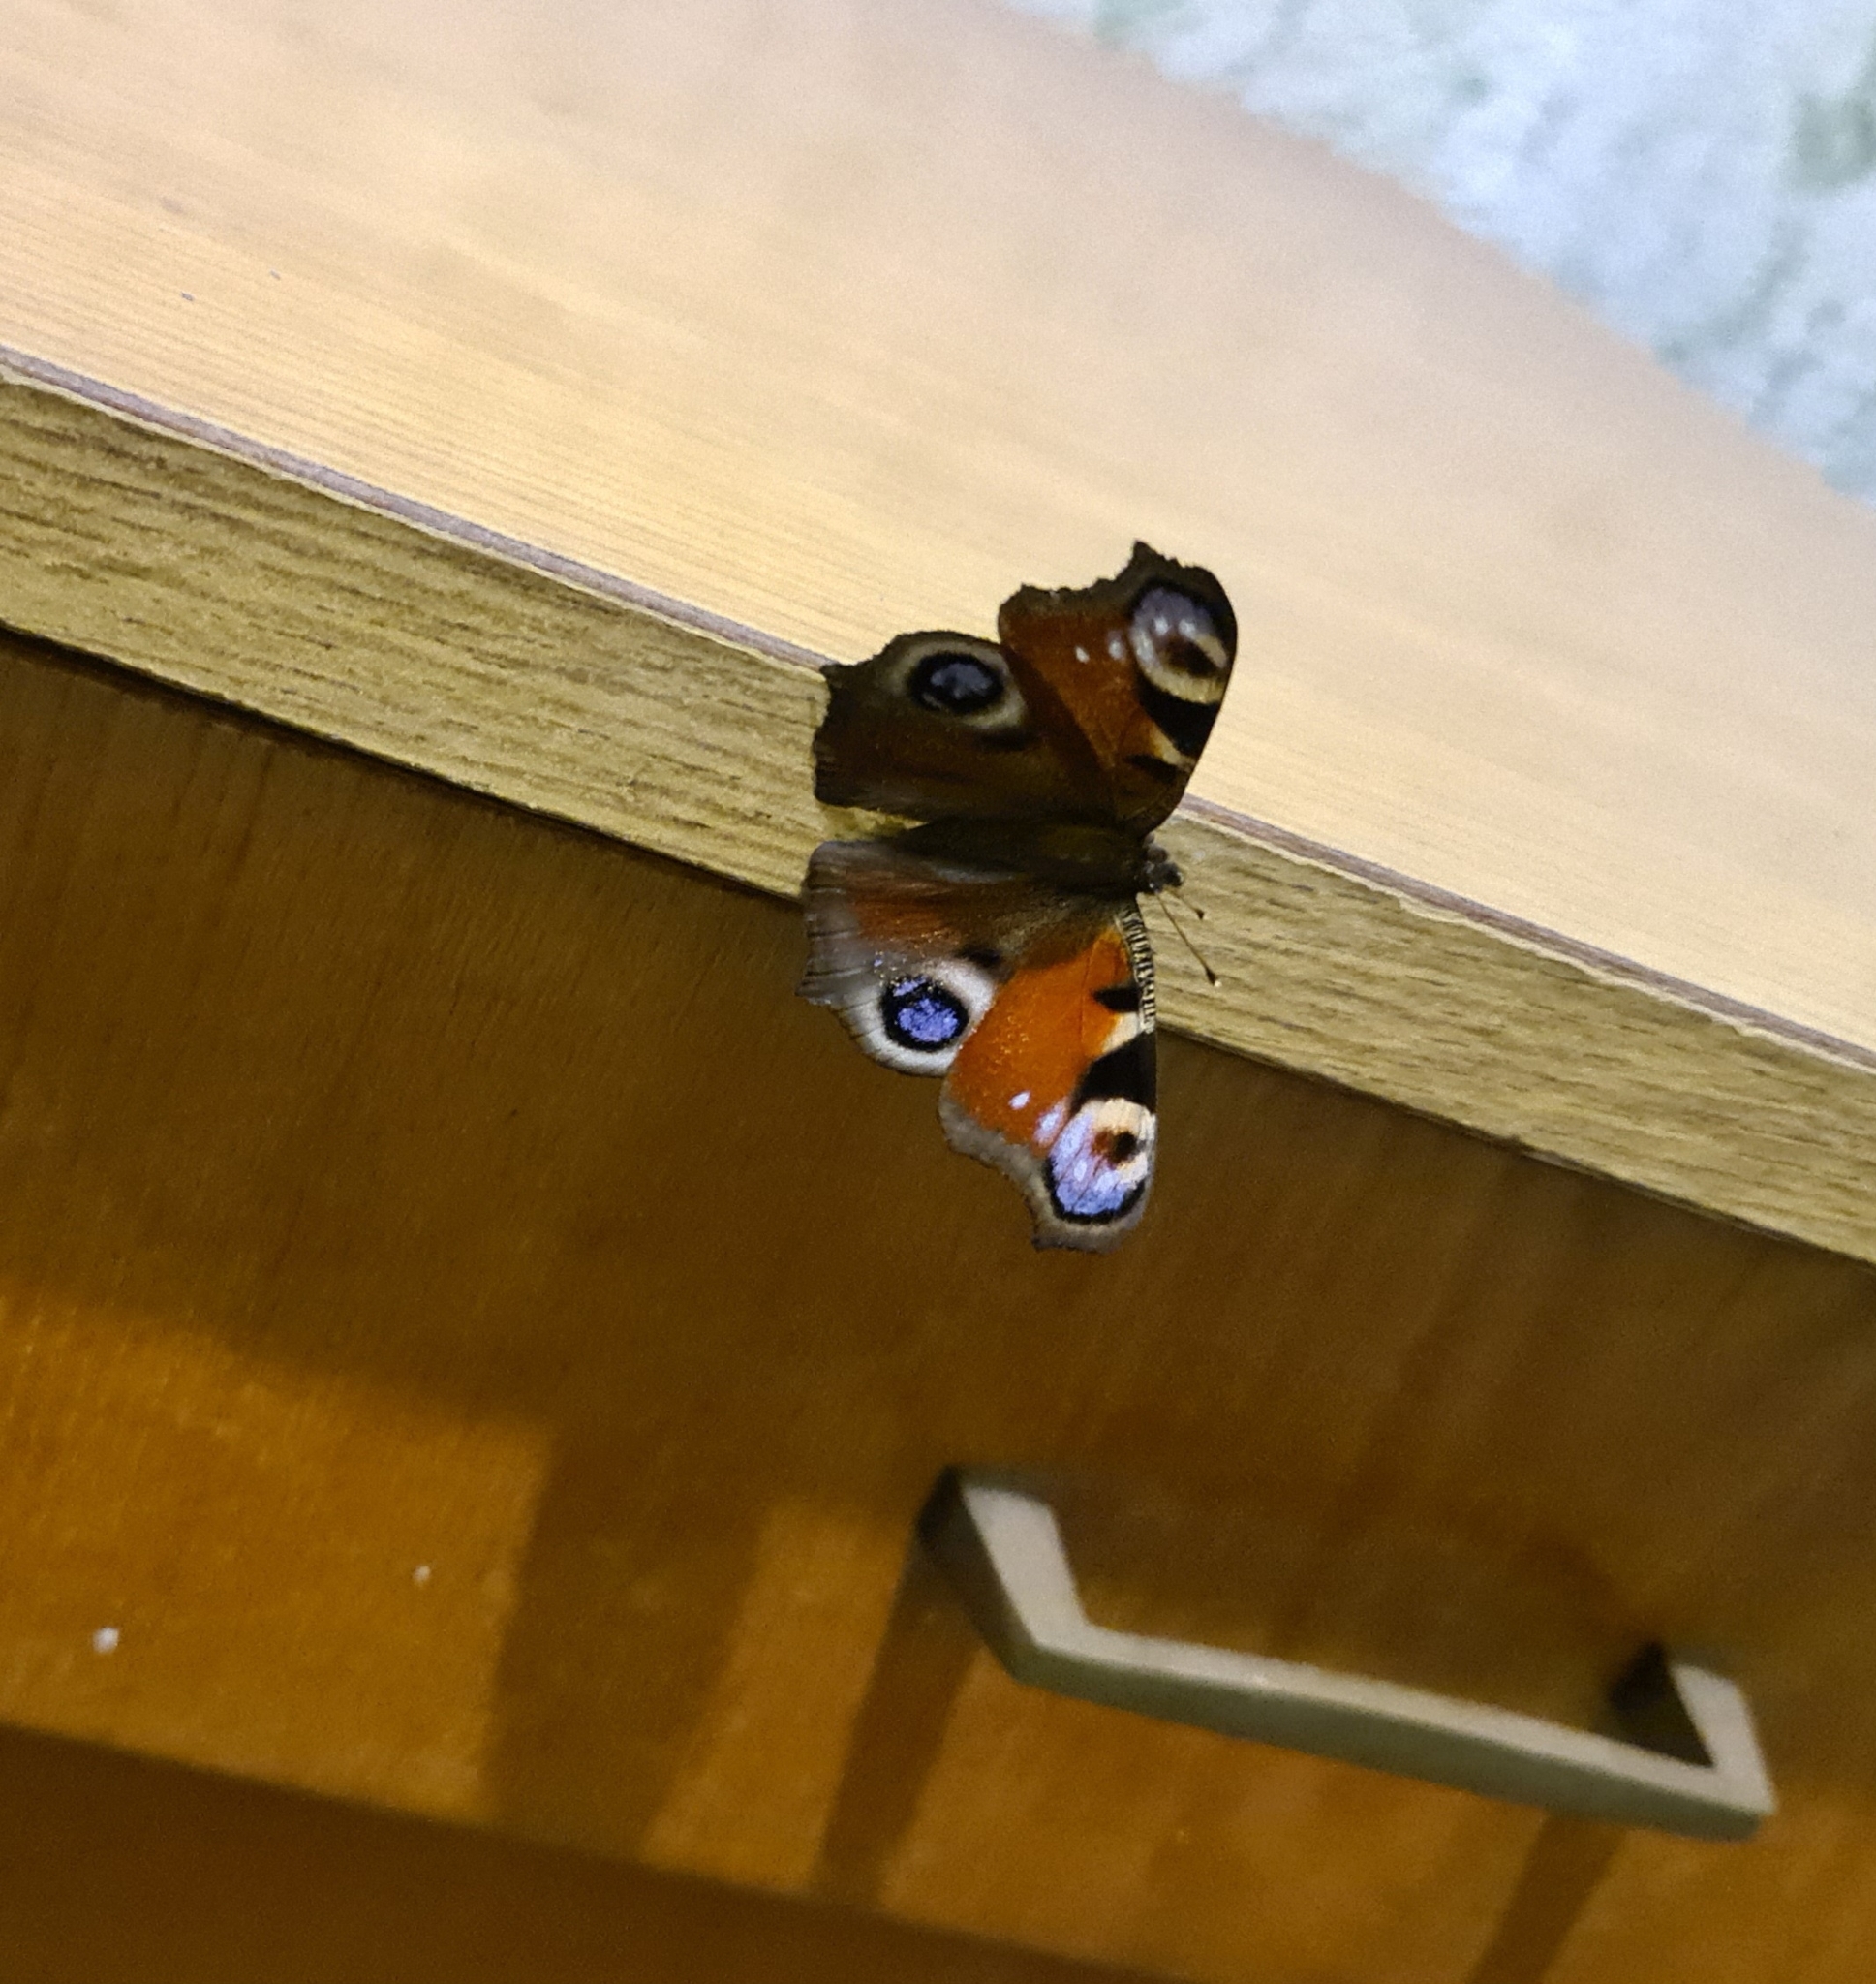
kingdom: Animalia
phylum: Arthropoda
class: Insecta
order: Lepidoptera
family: Nymphalidae
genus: Aglais
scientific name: Aglais io
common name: Peacock
